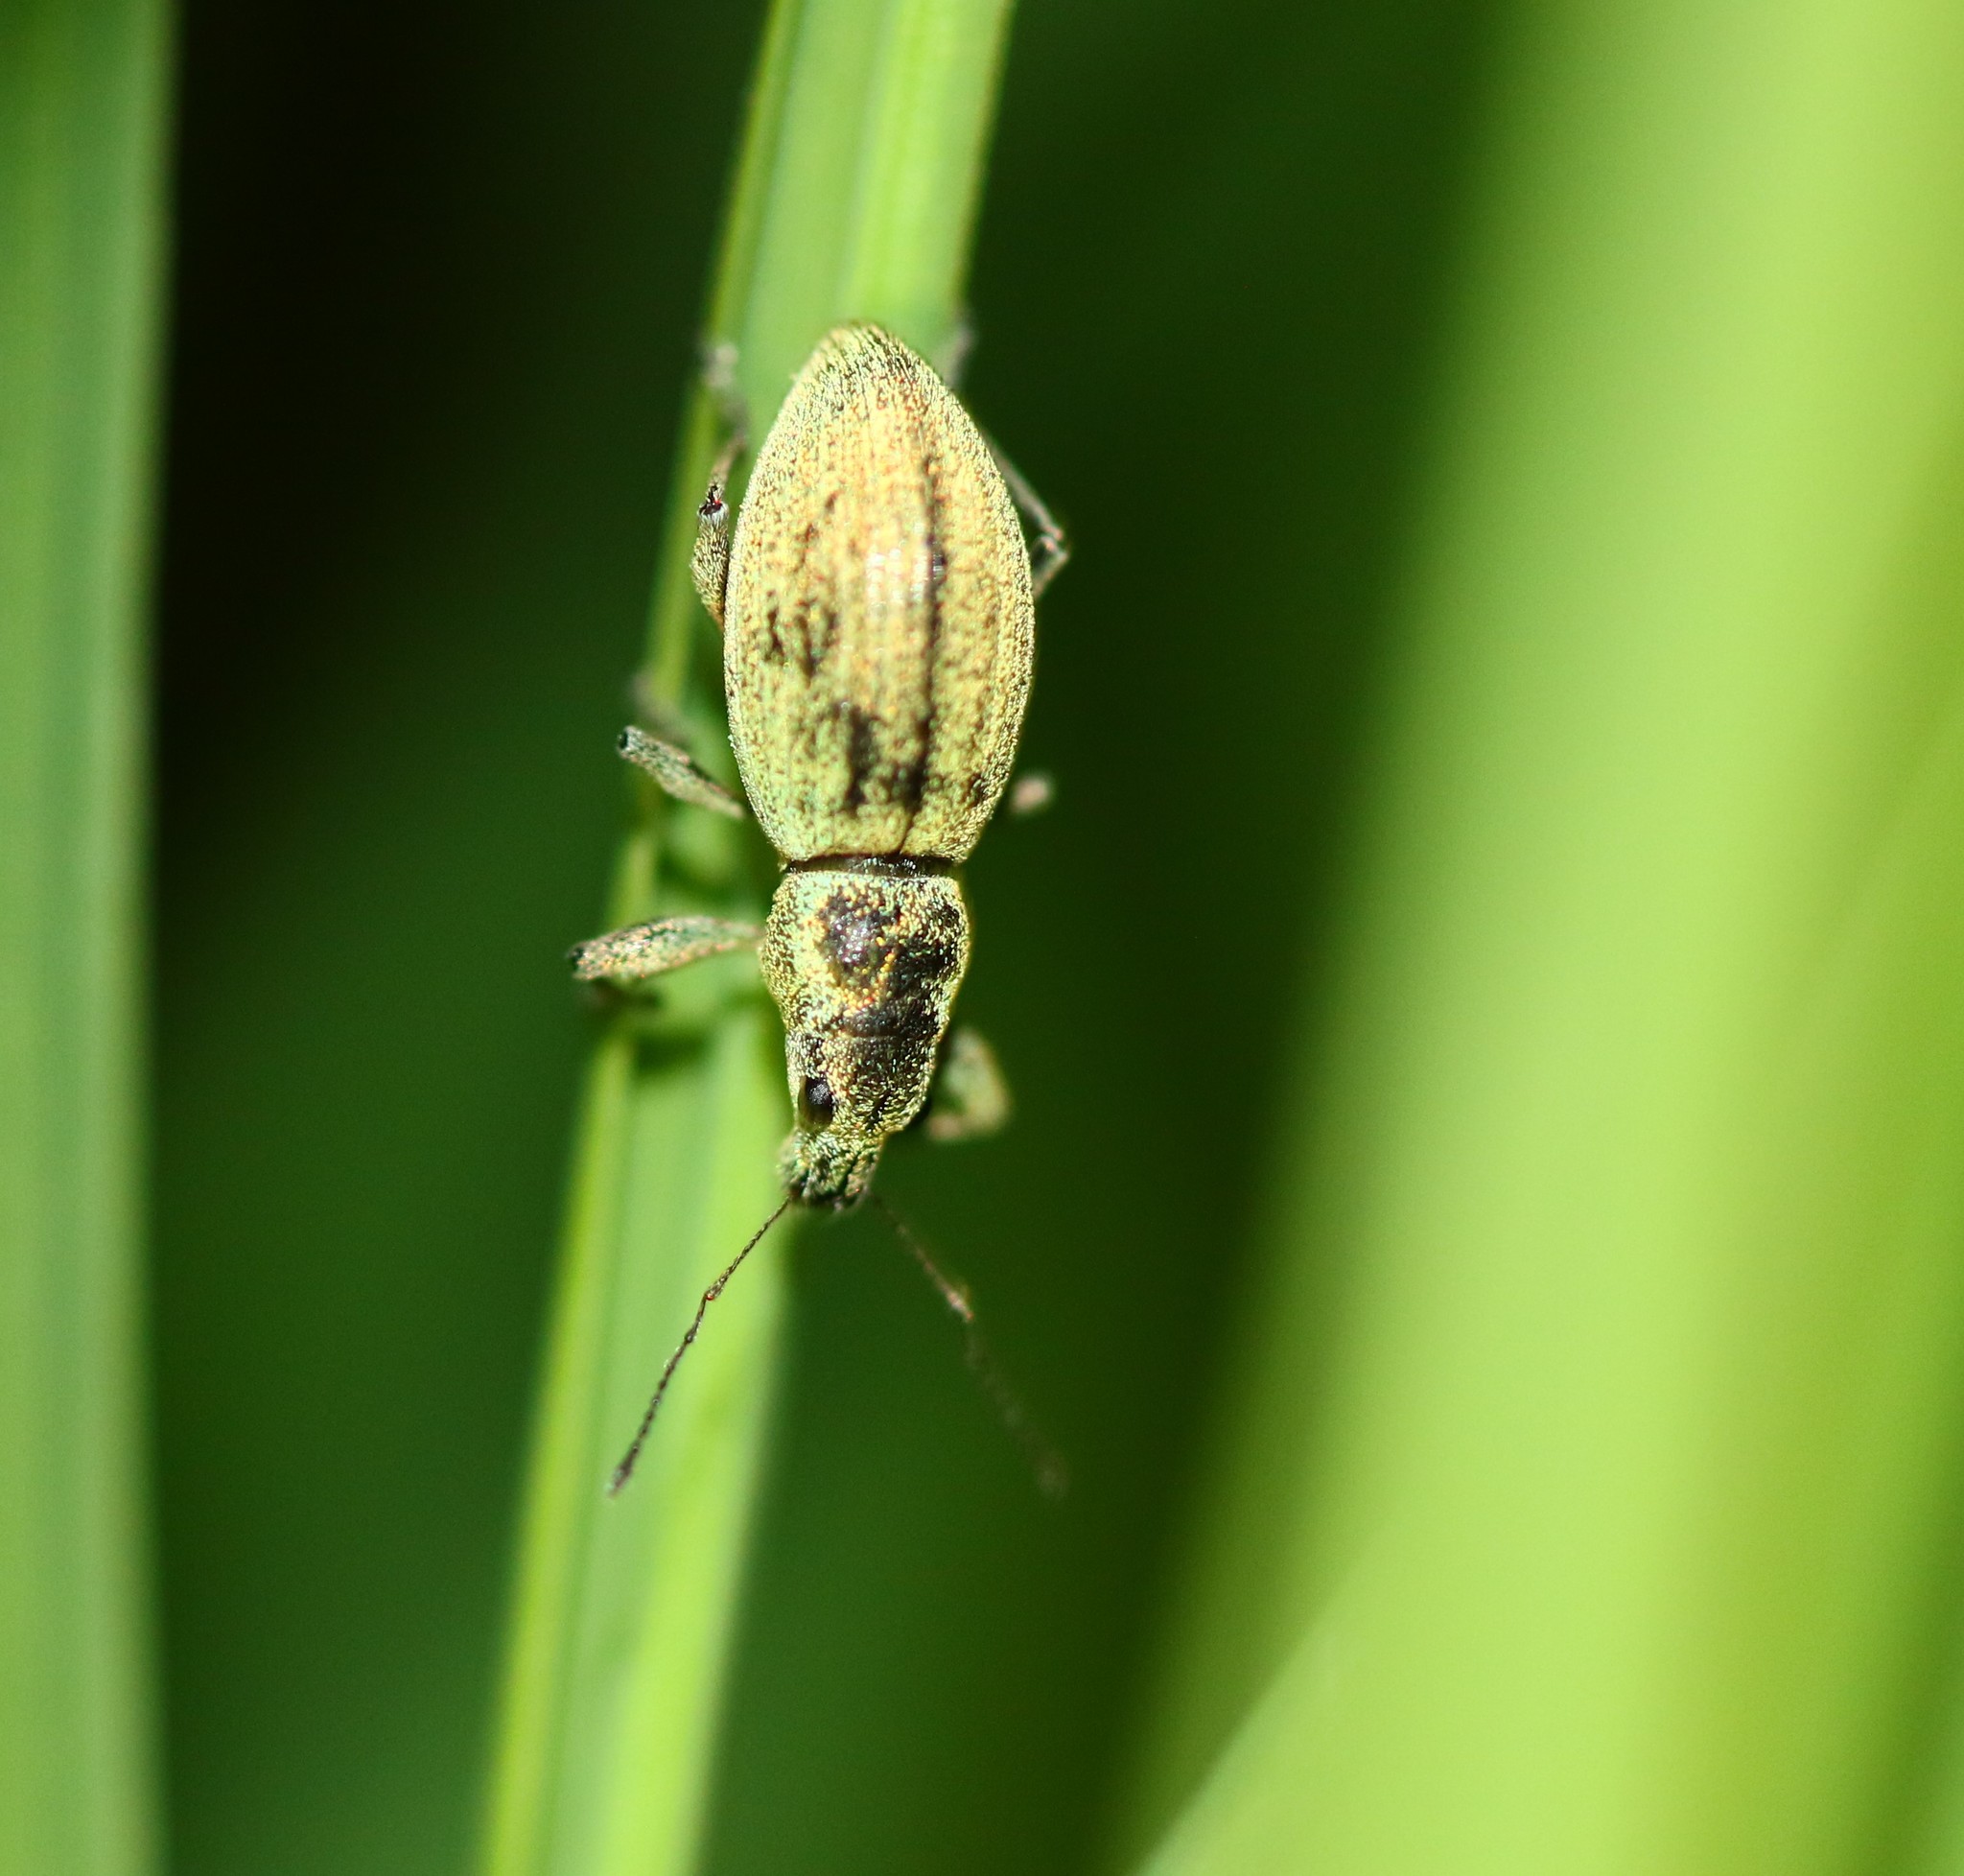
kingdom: Animalia
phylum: Arthropoda
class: Insecta
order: Coleoptera
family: Curculionidae
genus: Eusomus
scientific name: Eusomus ovulum
